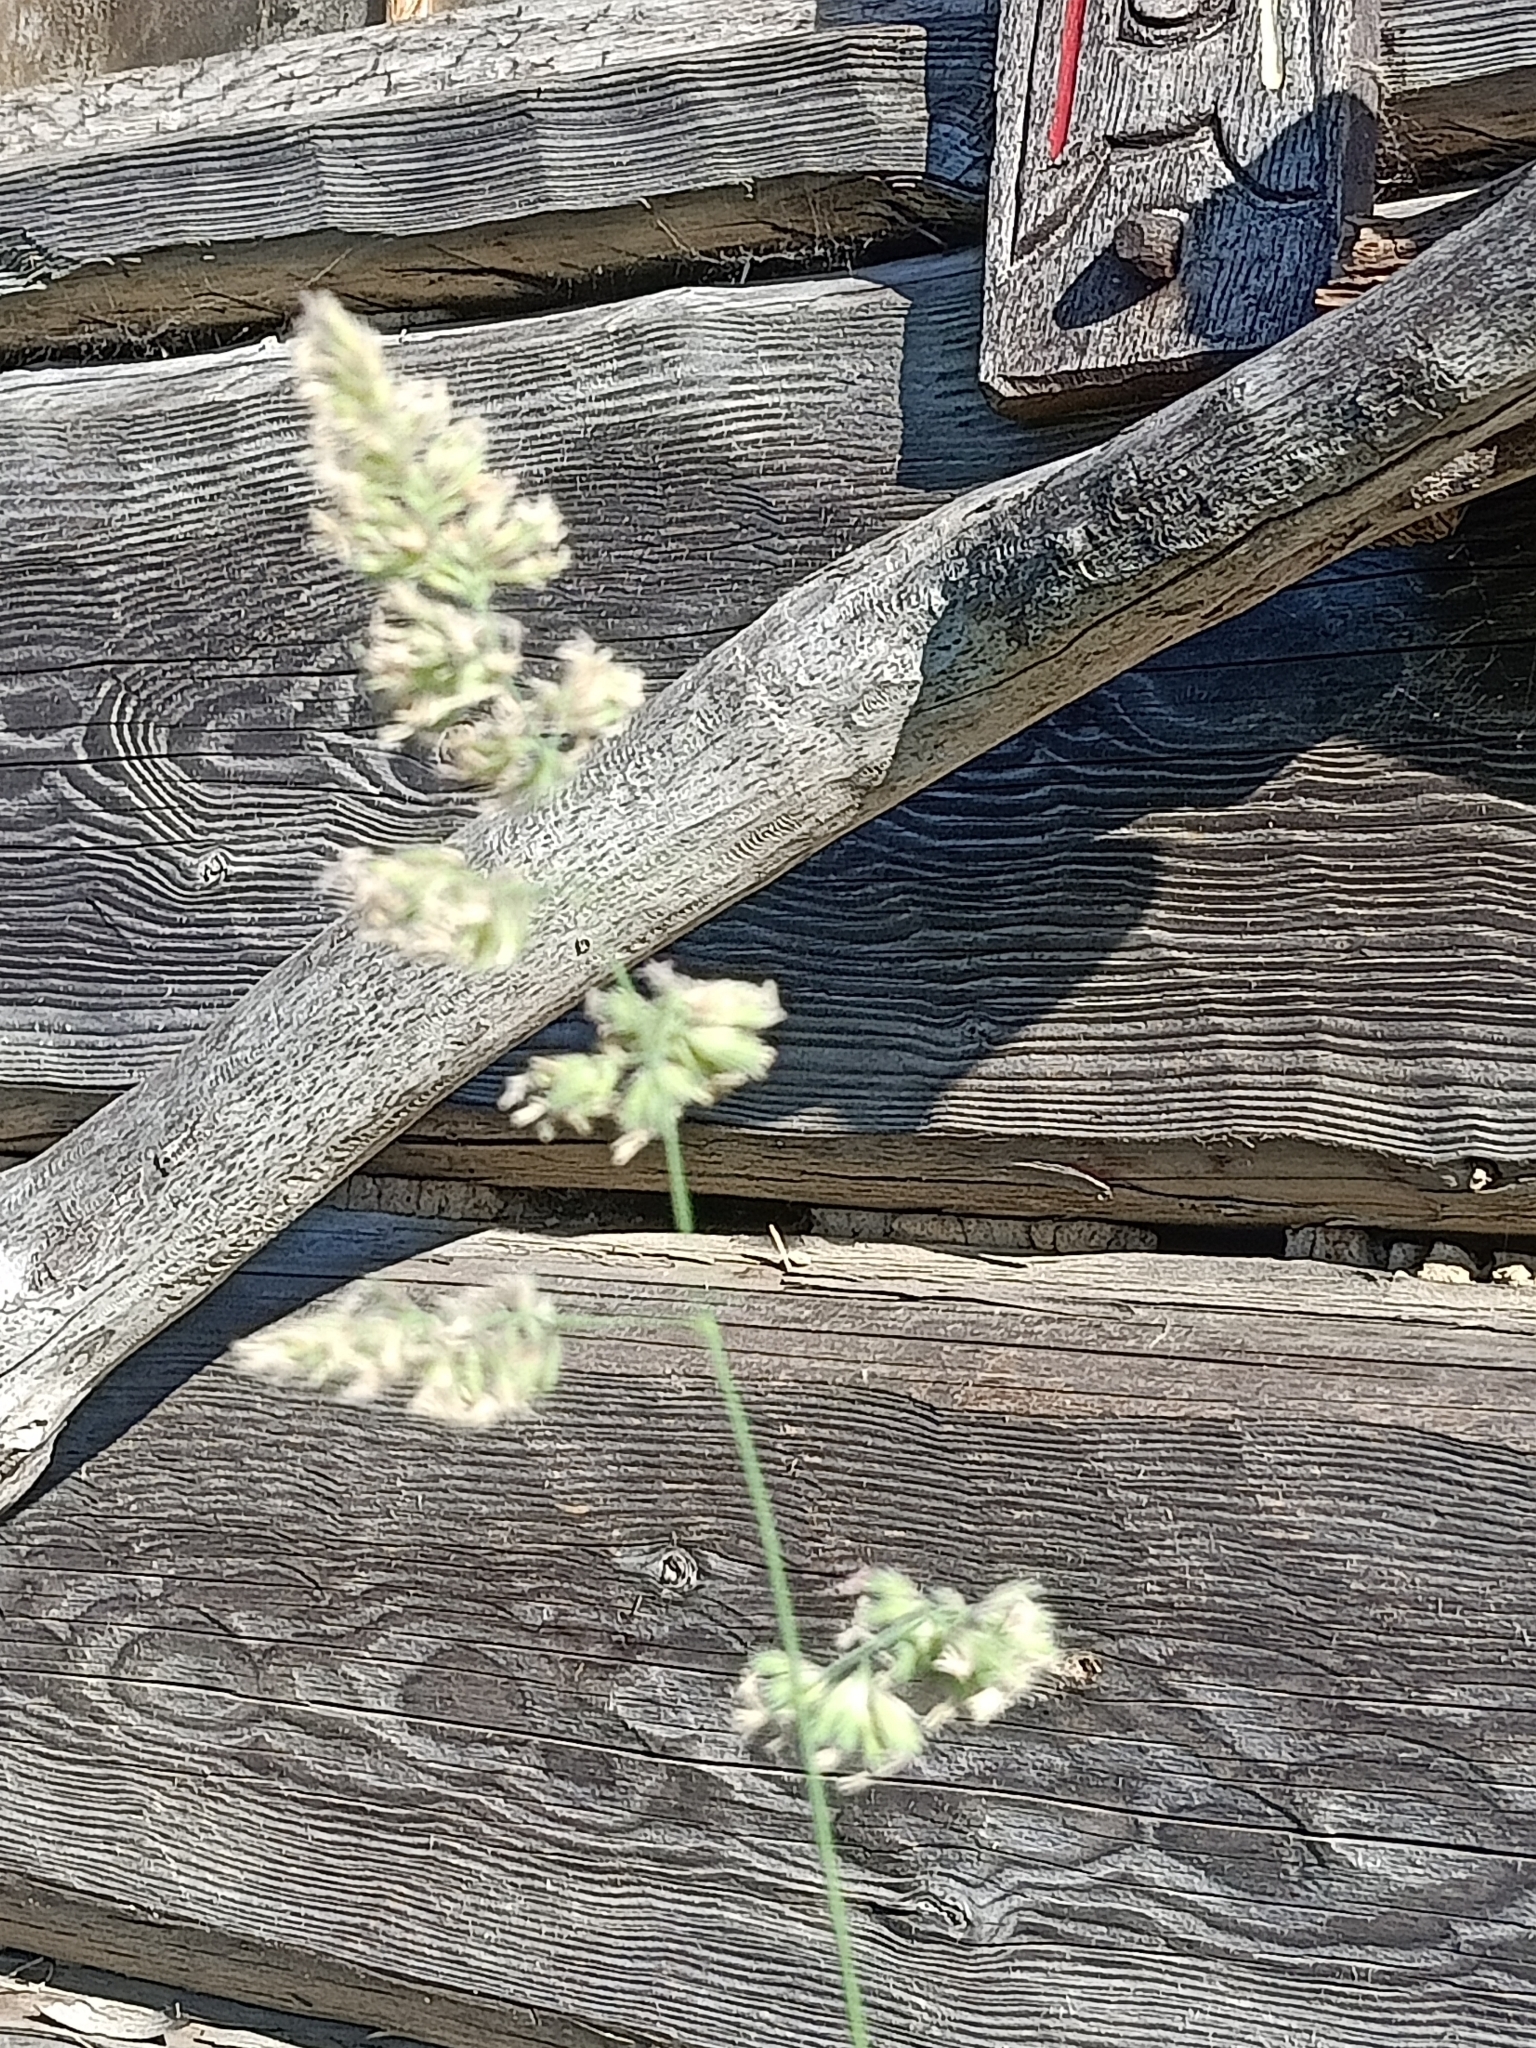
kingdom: Plantae
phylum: Tracheophyta
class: Liliopsida
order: Poales
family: Poaceae
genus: Dactylis
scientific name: Dactylis glomerata
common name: Orchardgrass
